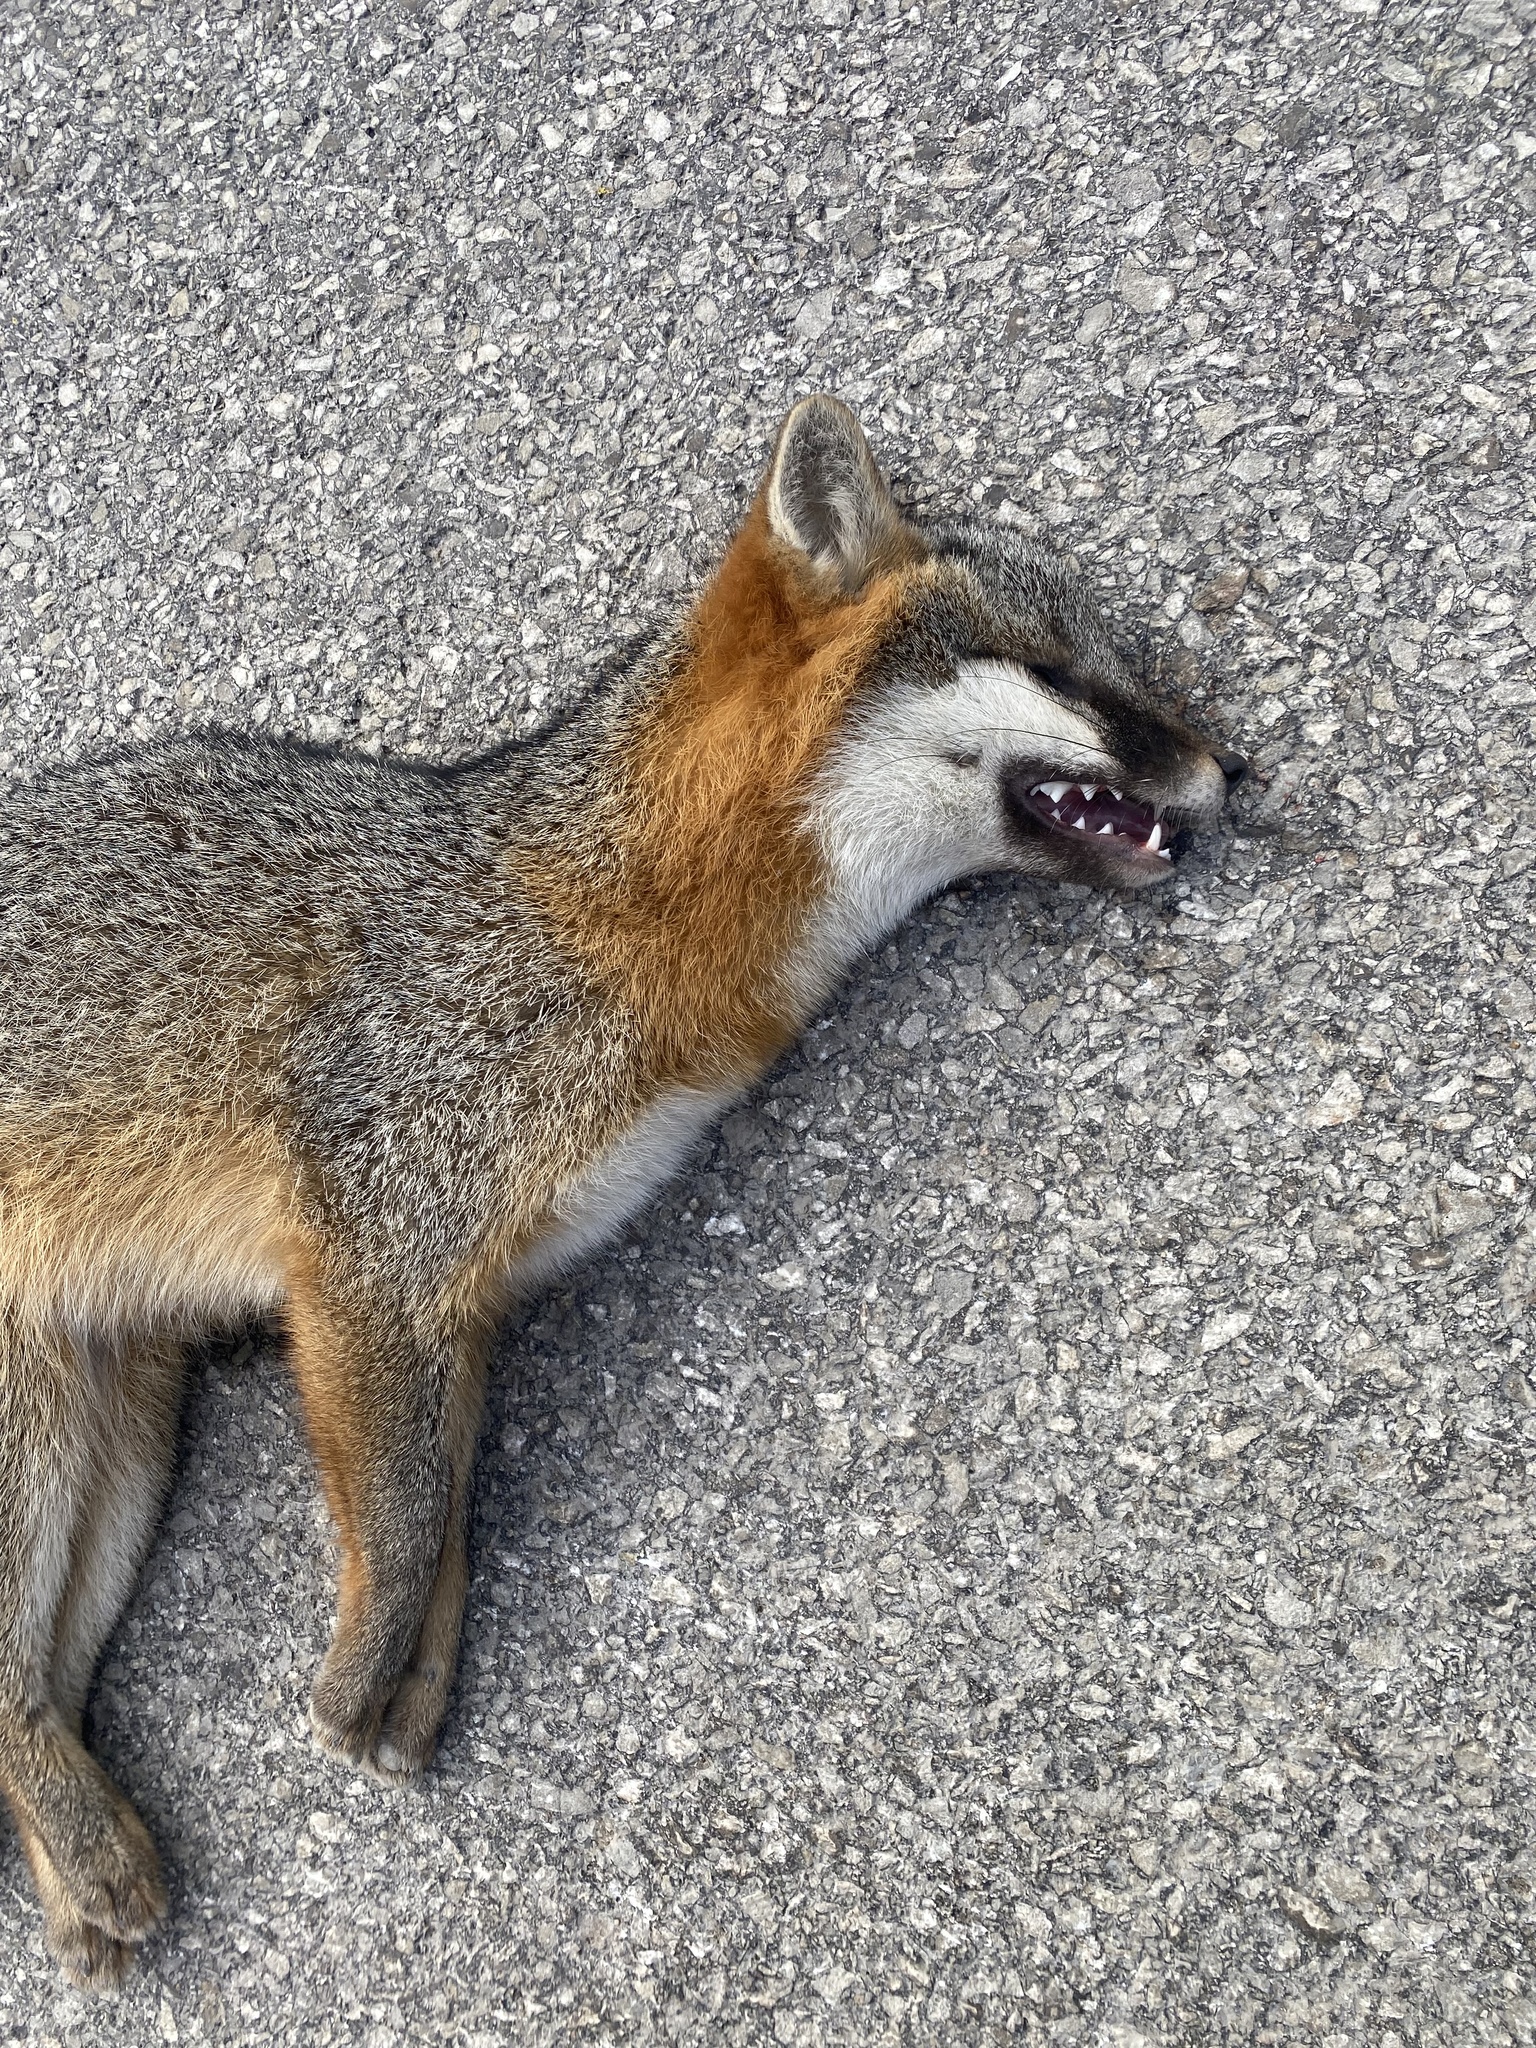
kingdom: Animalia
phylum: Chordata
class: Mammalia
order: Carnivora
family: Canidae
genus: Urocyon
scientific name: Urocyon cinereoargenteus
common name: Gray fox
